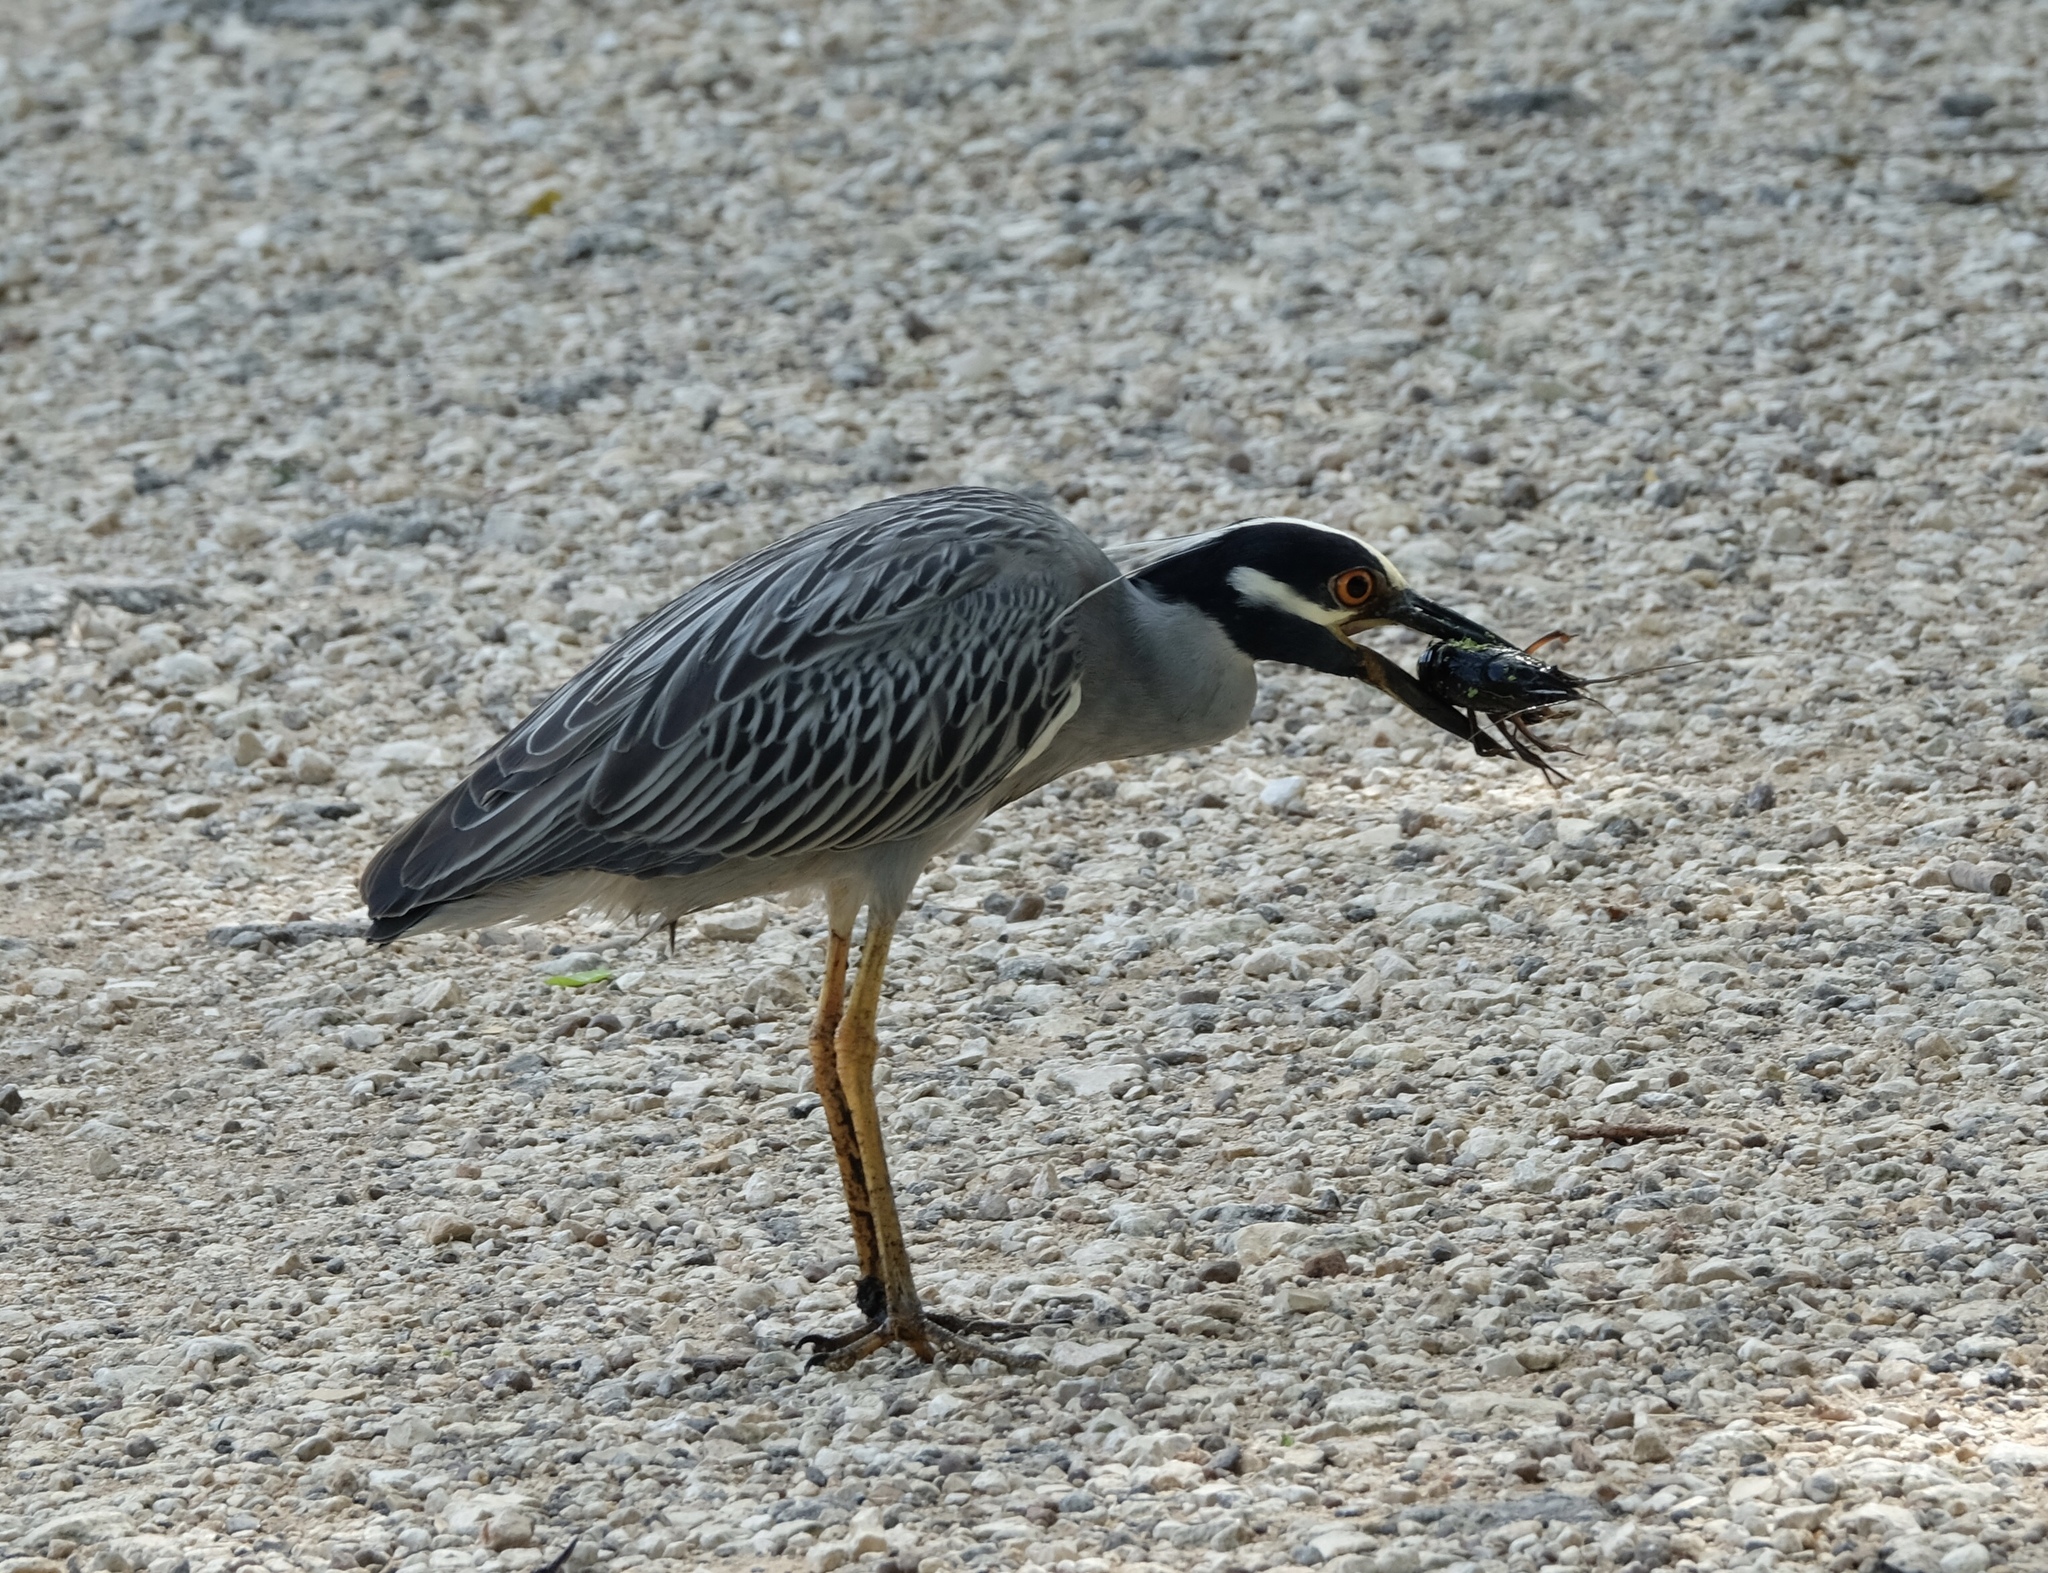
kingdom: Animalia
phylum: Chordata
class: Aves
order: Pelecaniformes
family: Ardeidae
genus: Nyctanassa
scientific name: Nyctanassa violacea
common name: Yellow-crowned night heron
